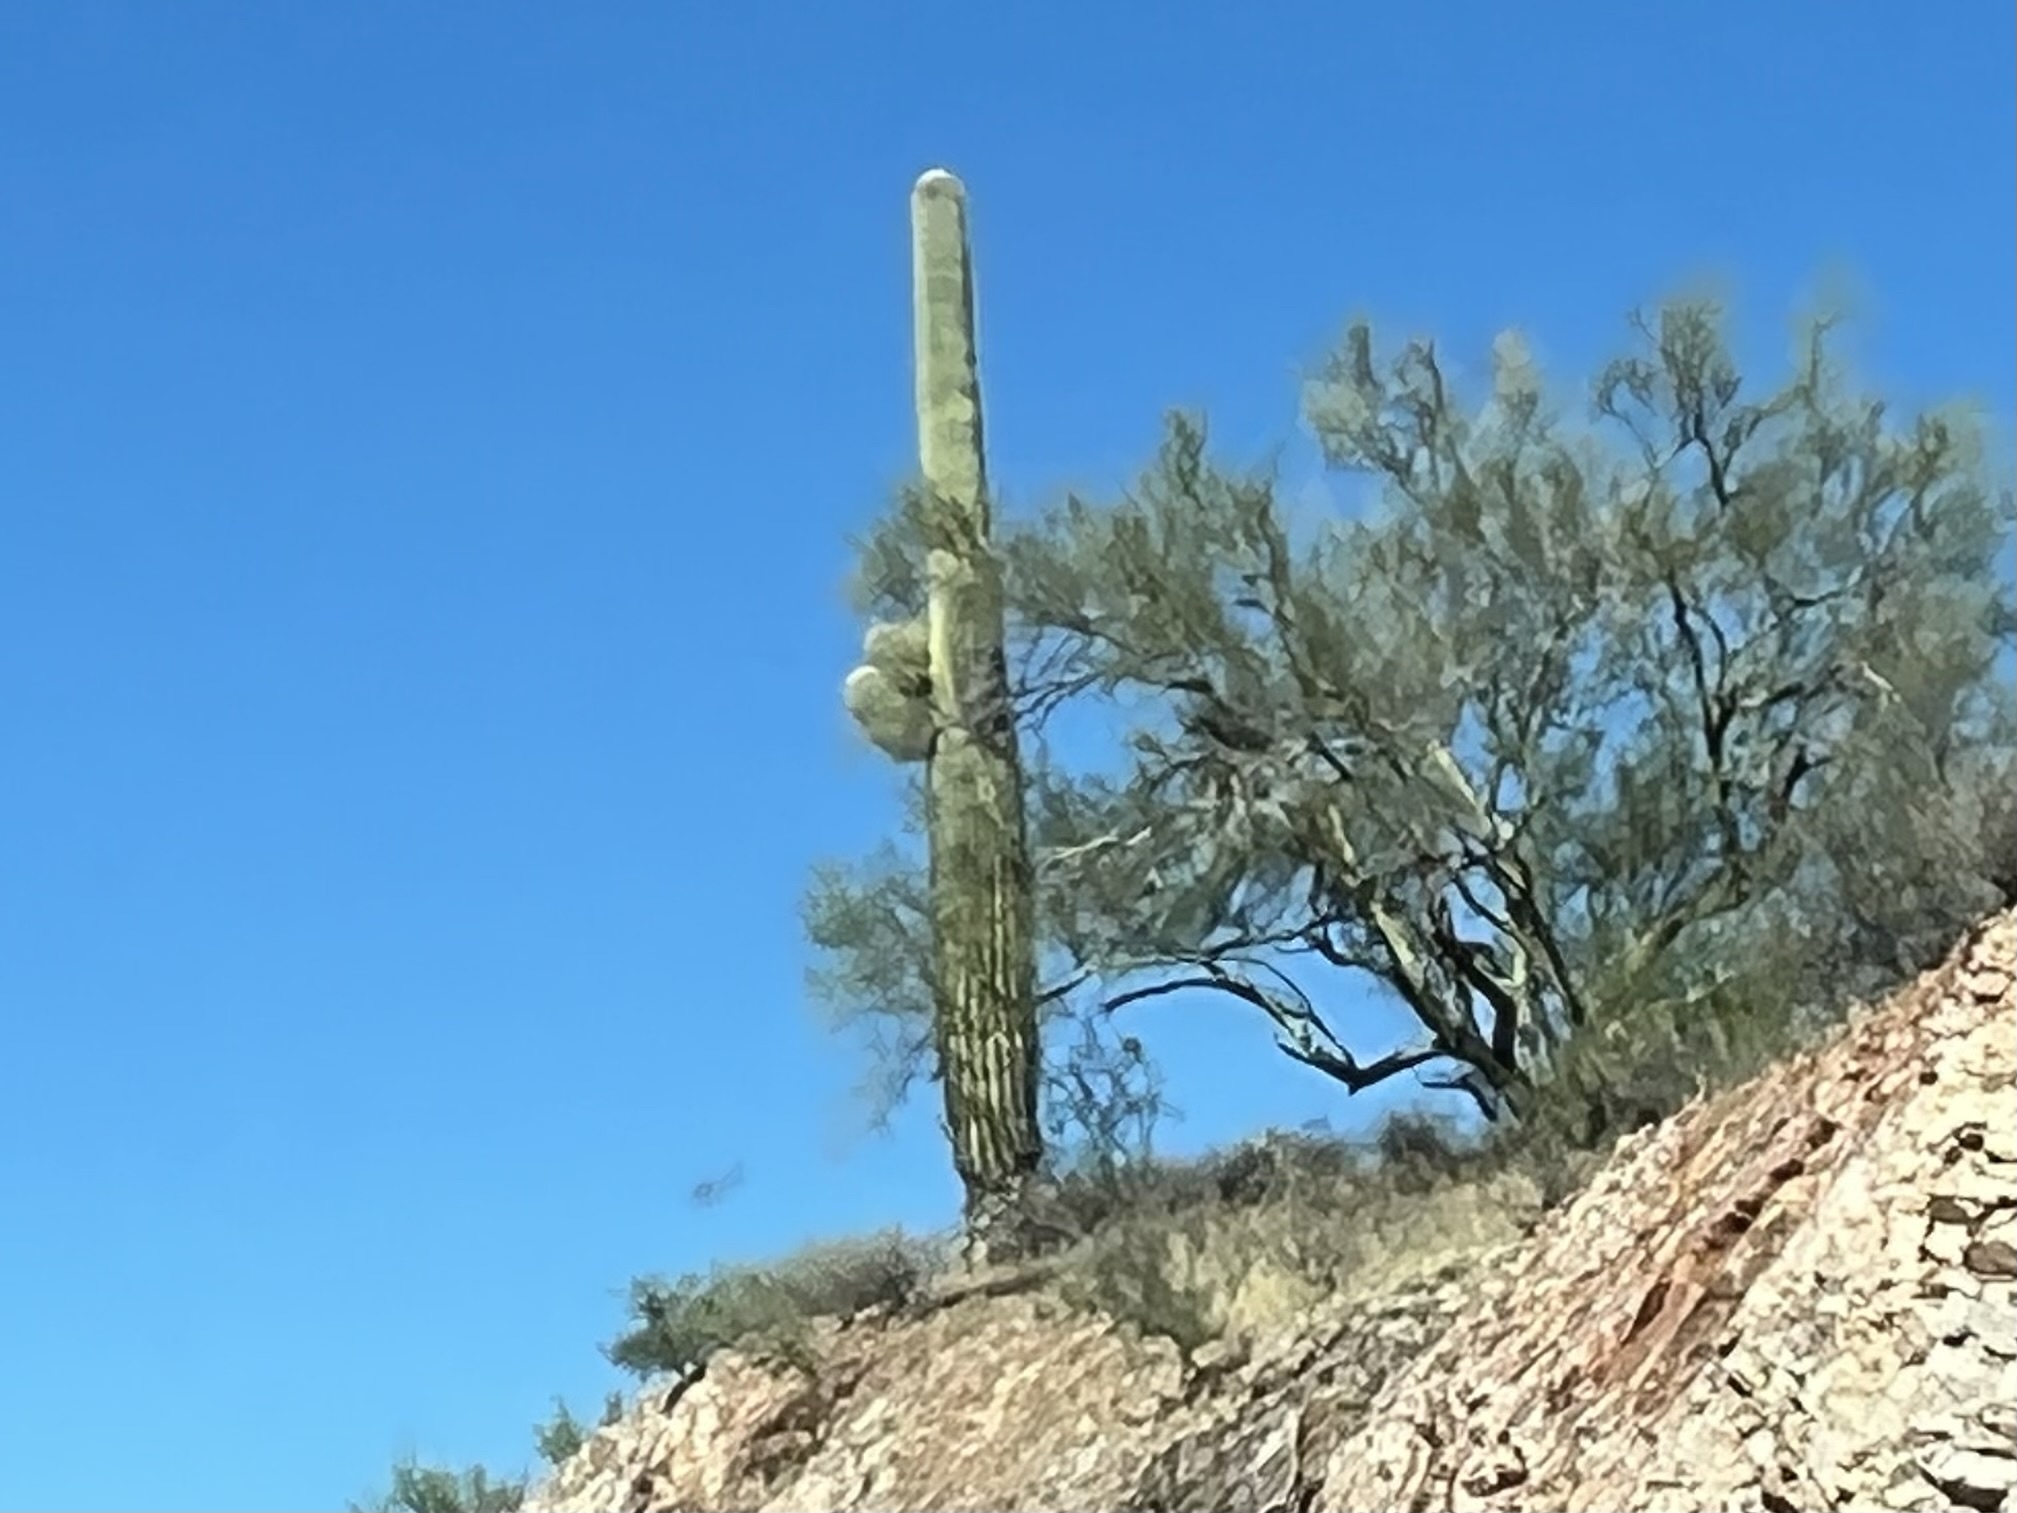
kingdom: Plantae
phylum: Tracheophyta
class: Magnoliopsida
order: Caryophyllales
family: Cactaceae
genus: Carnegiea
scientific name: Carnegiea gigantea
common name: Saguaro
